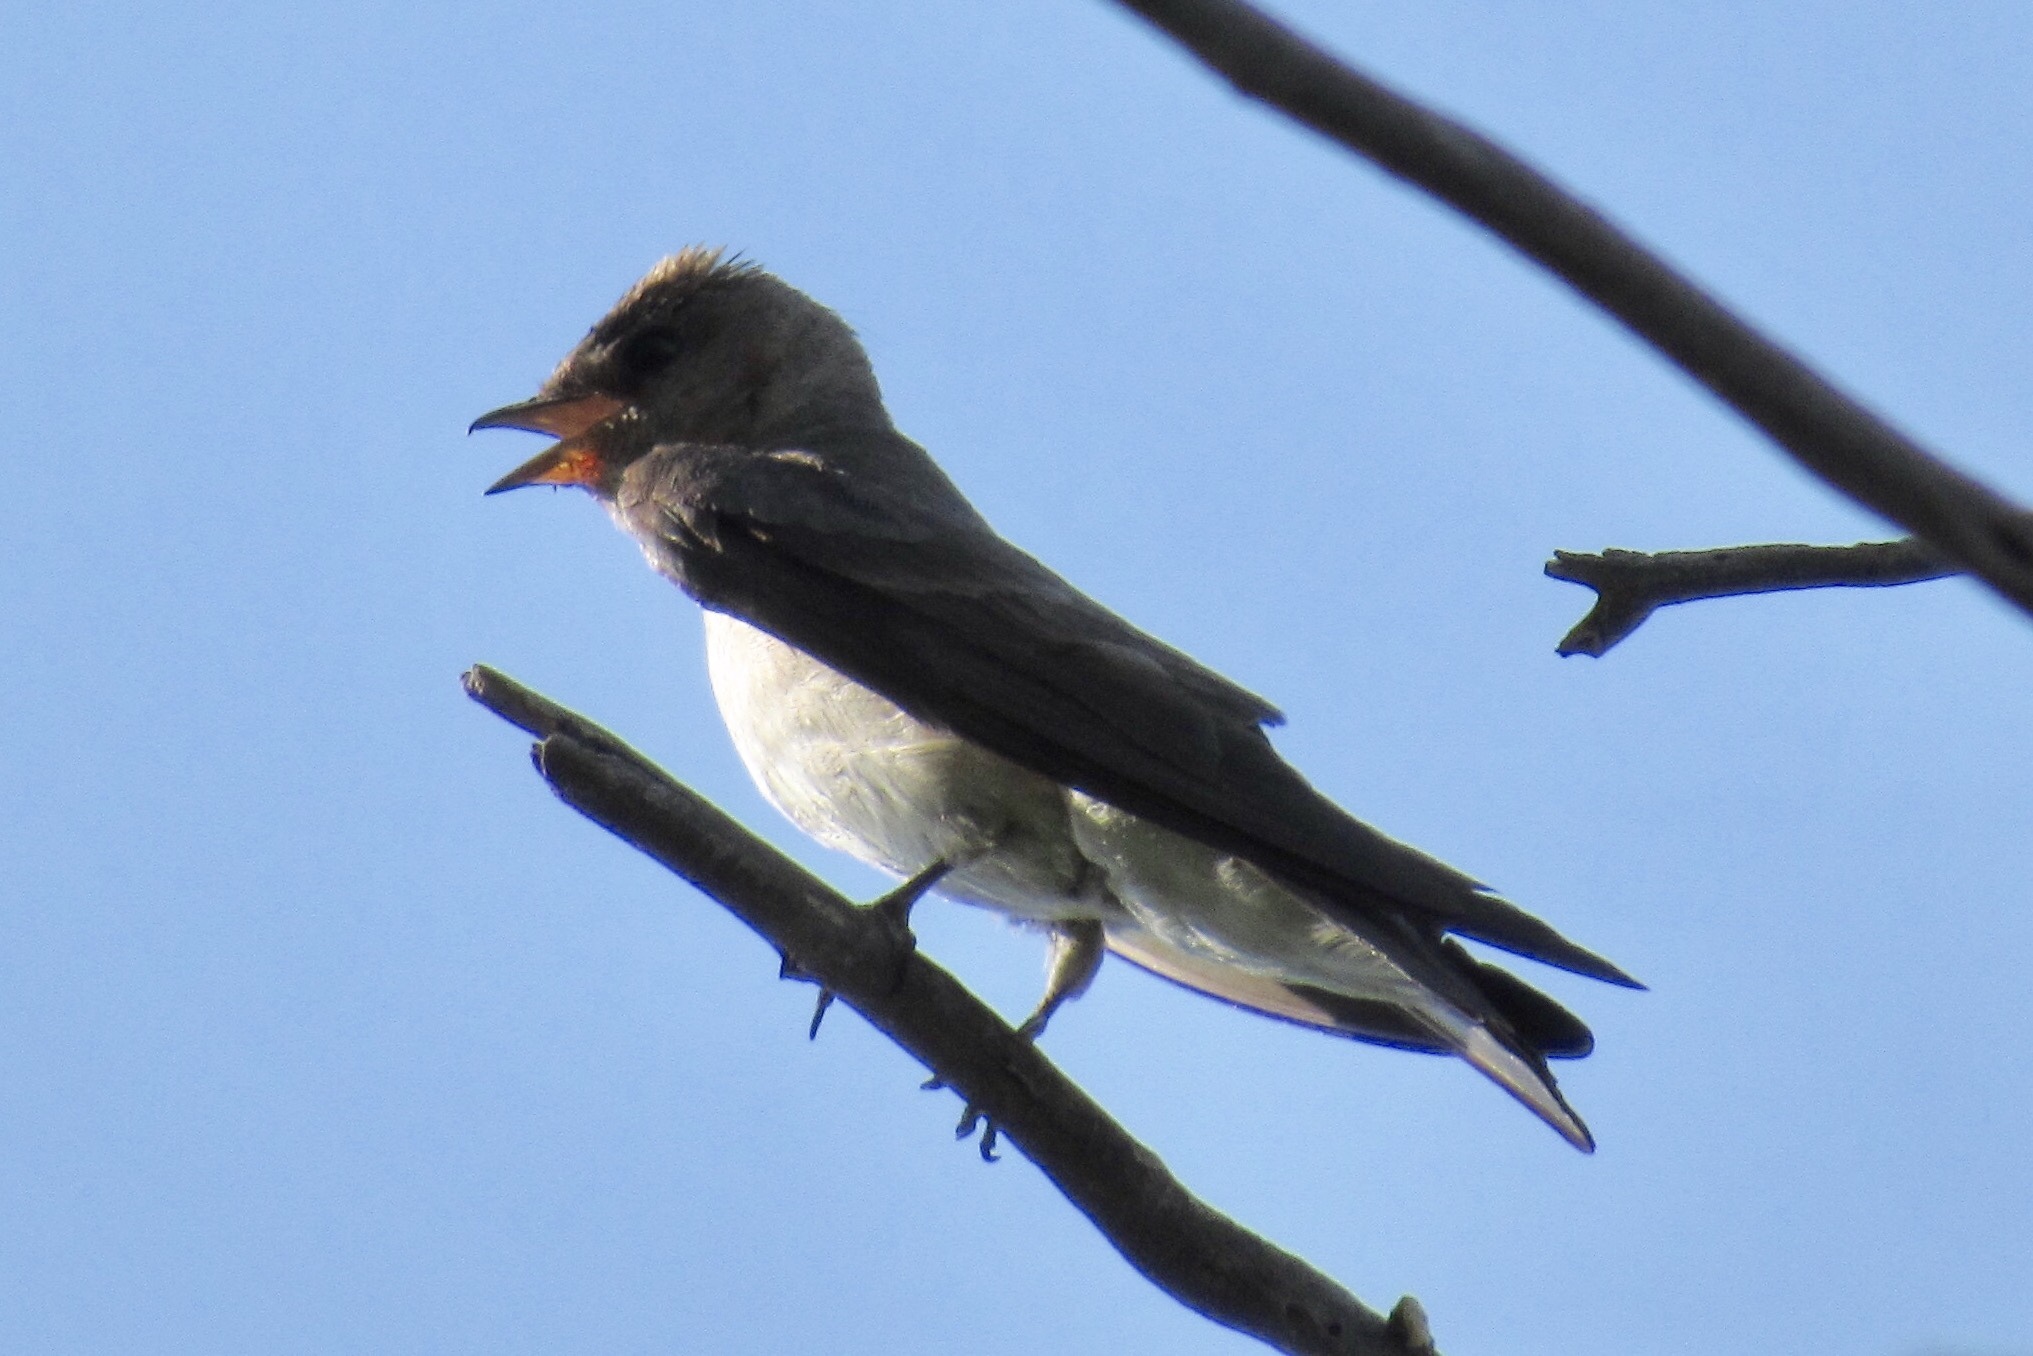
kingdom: Animalia
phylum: Chordata
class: Aves
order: Passeriformes
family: Hirundinidae
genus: Stelgidopteryx
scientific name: Stelgidopteryx serripennis
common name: Northern rough-winged swallow
